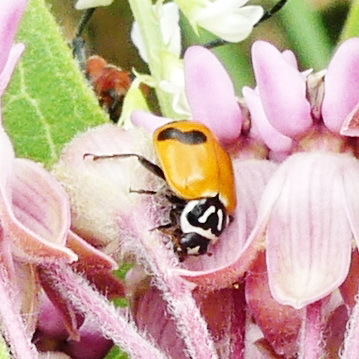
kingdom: Animalia
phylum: Arthropoda
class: Insecta
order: Coleoptera
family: Coccinellidae
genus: Hippodamia
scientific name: Hippodamia glacialis
